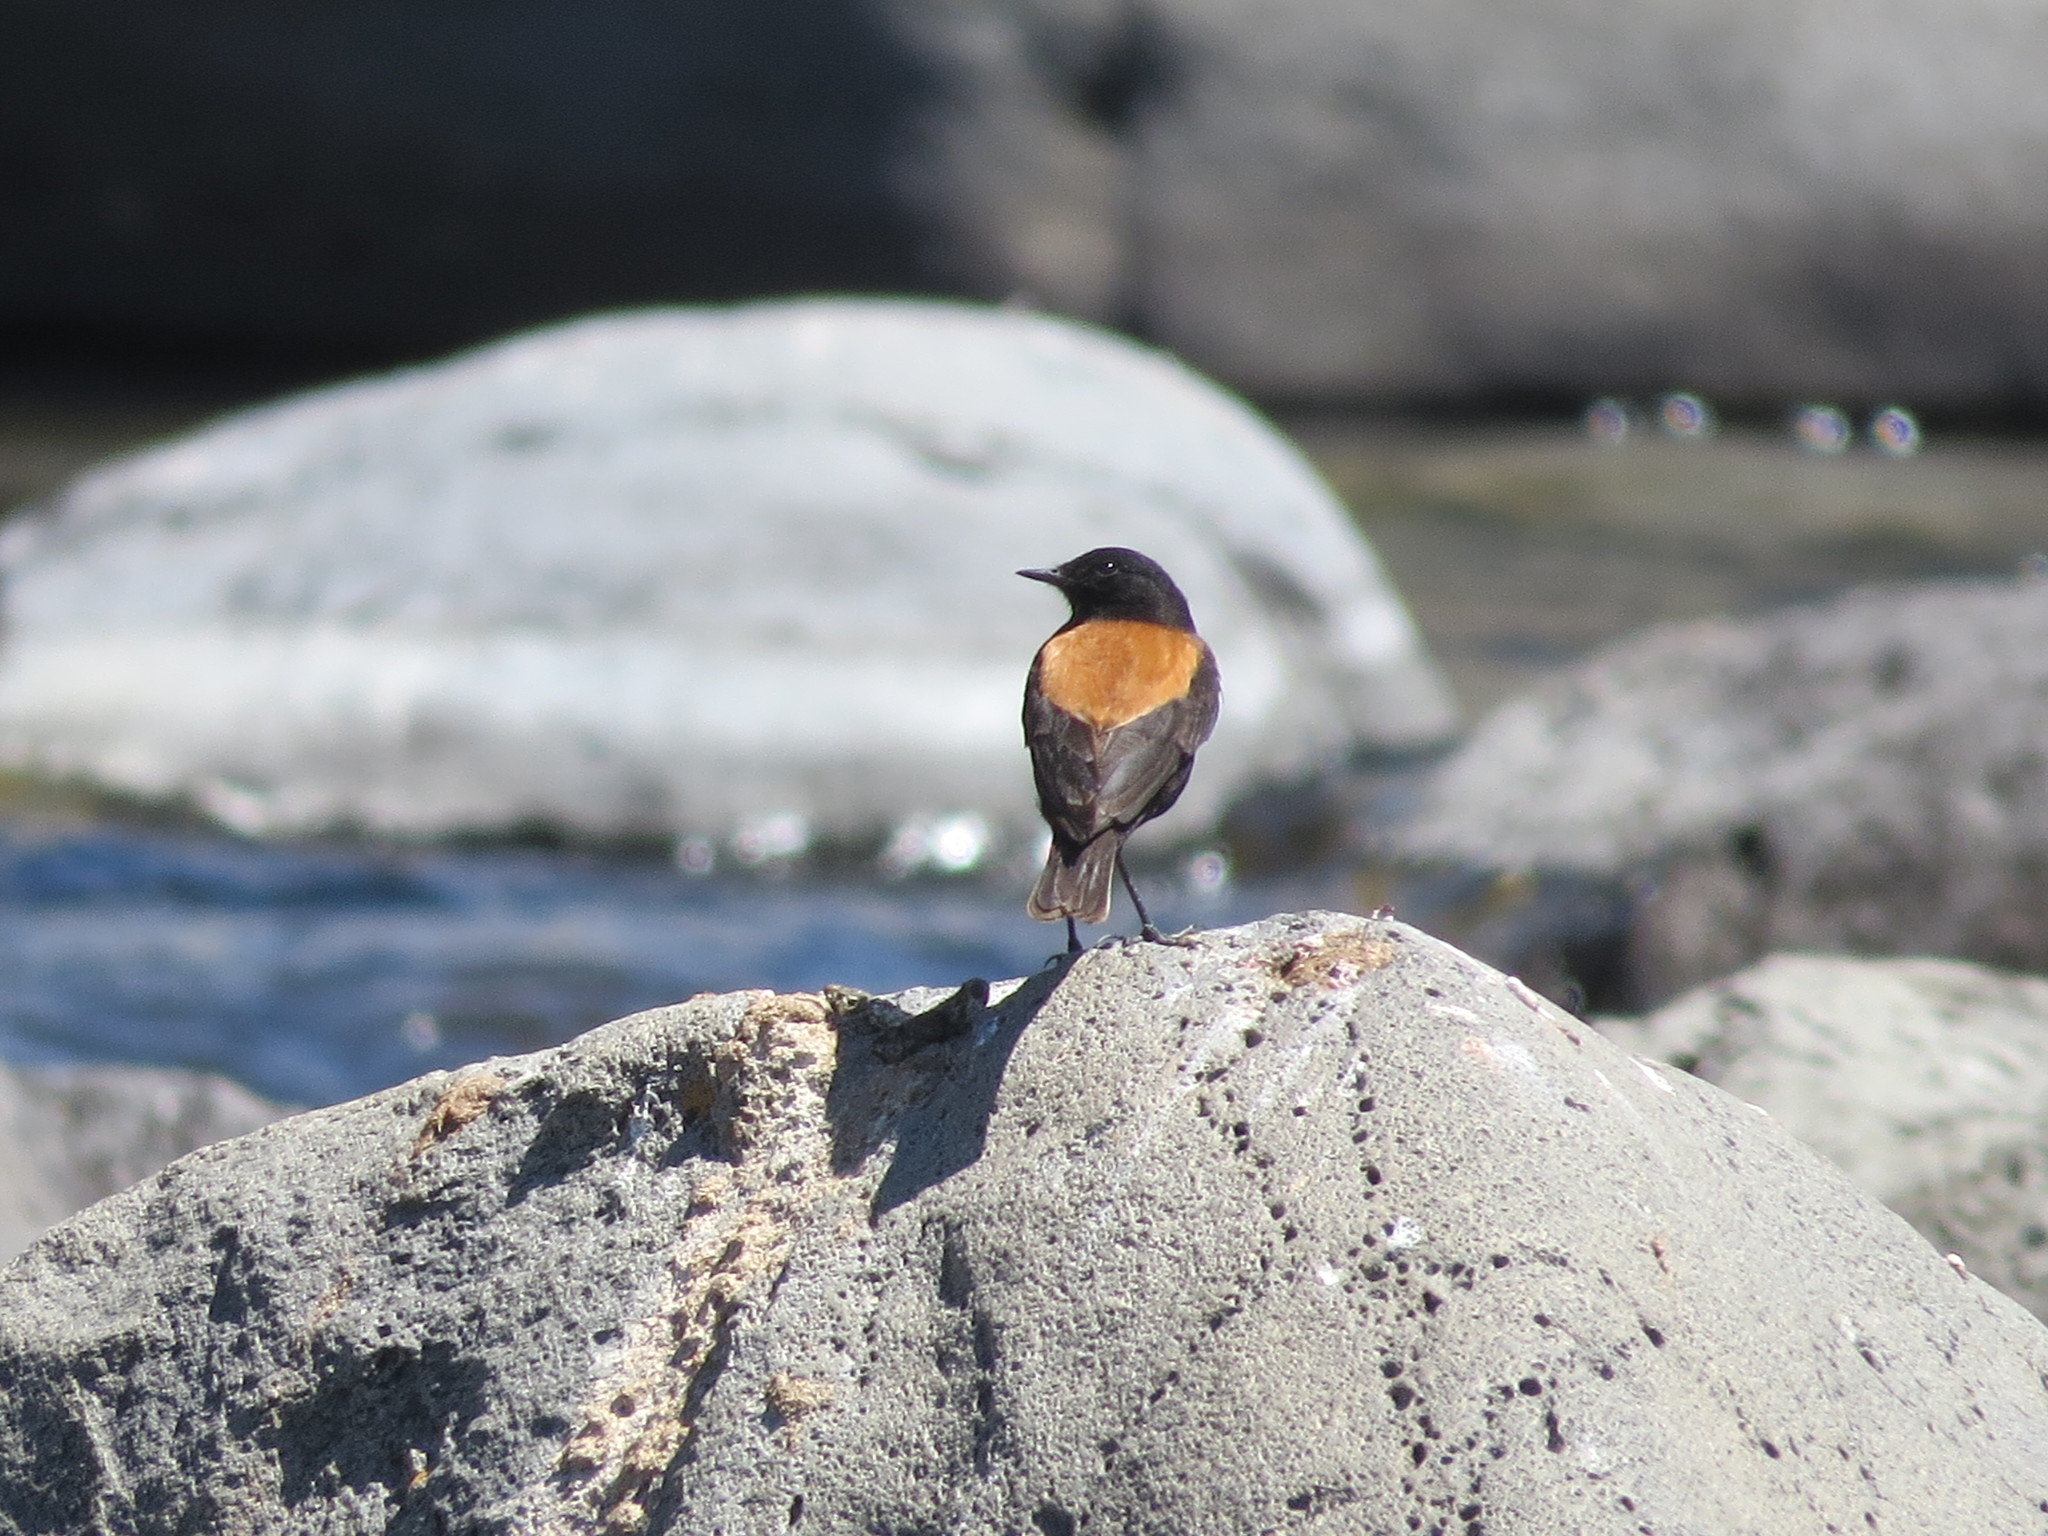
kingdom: Animalia
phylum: Chordata
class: Aves
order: Passeriformes
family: Tyrannidae
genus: Lessonia
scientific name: Lessonia rufa
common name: Austral negrito
